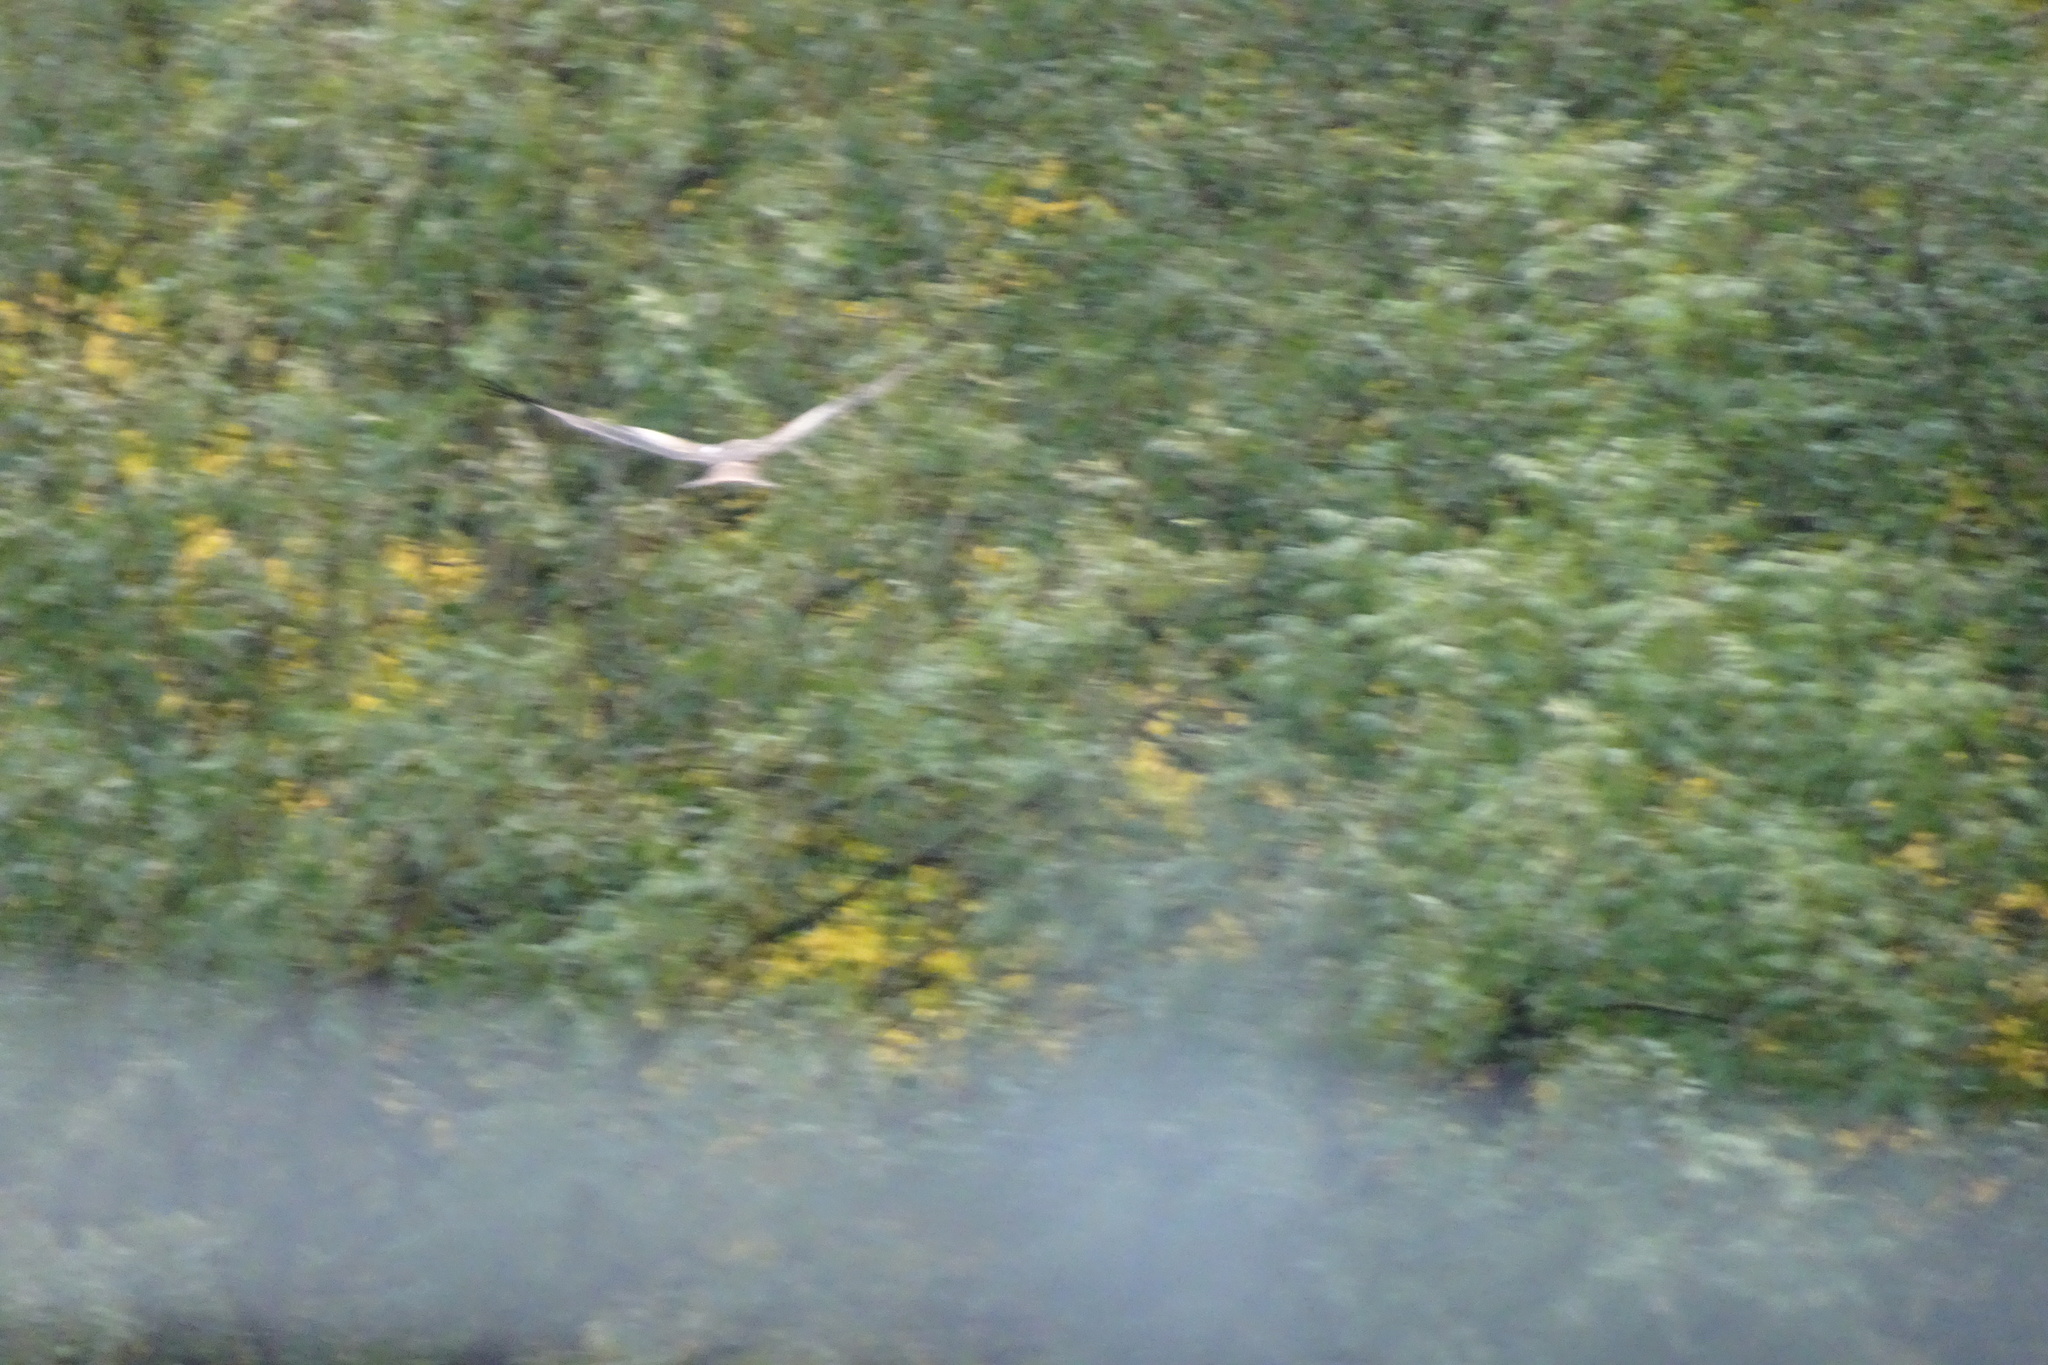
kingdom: Animalia
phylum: Chordata
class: Aves
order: Accipitriformes
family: Accipitridae
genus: Milvus
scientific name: Milvus milvus
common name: Red kite
